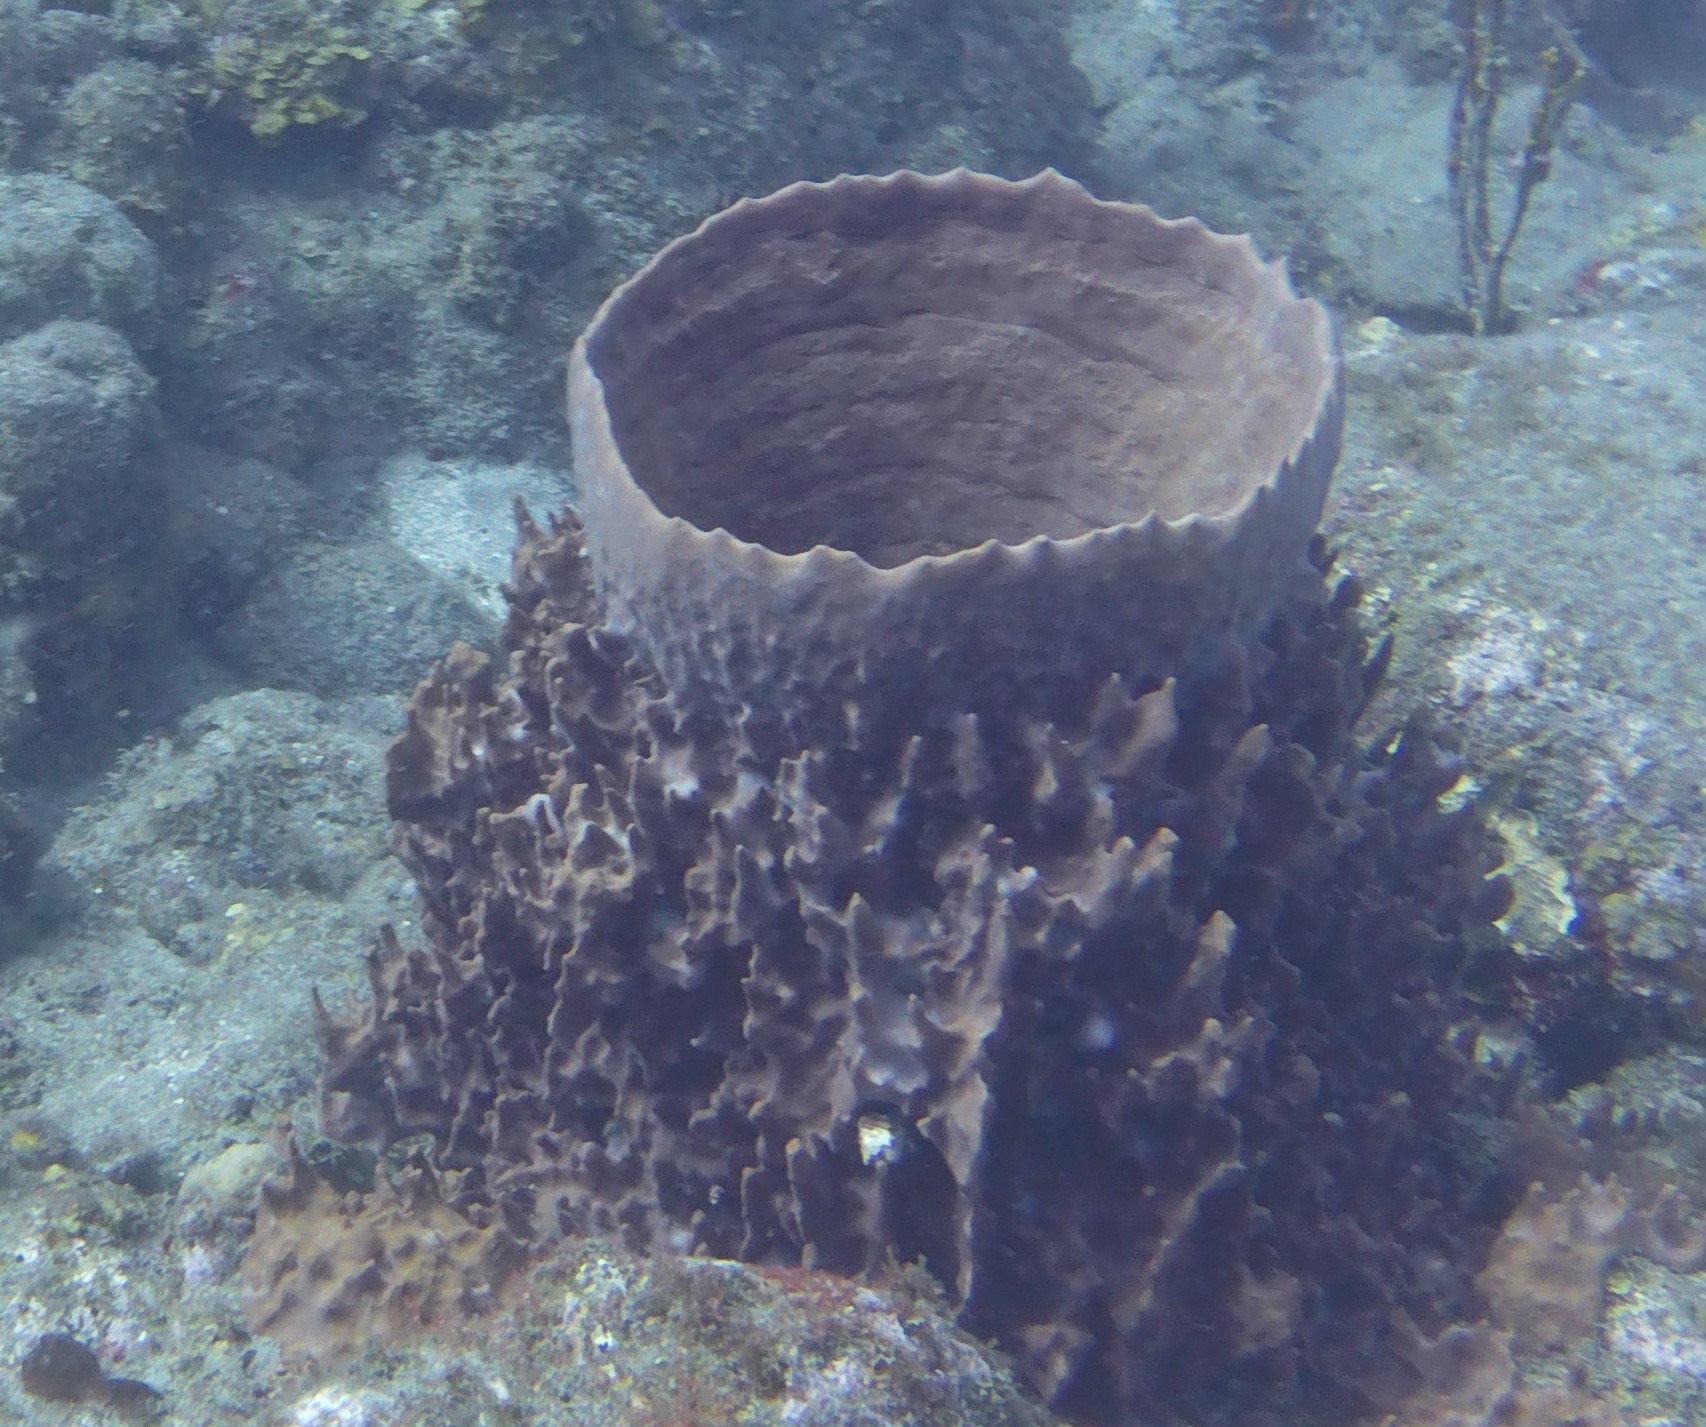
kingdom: Animalia
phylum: Porifera
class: Demospongiae
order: Haplosclerida
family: Petrosiidae
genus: Xestospongia
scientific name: Xestospongia muta
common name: Giant barrel sponge
